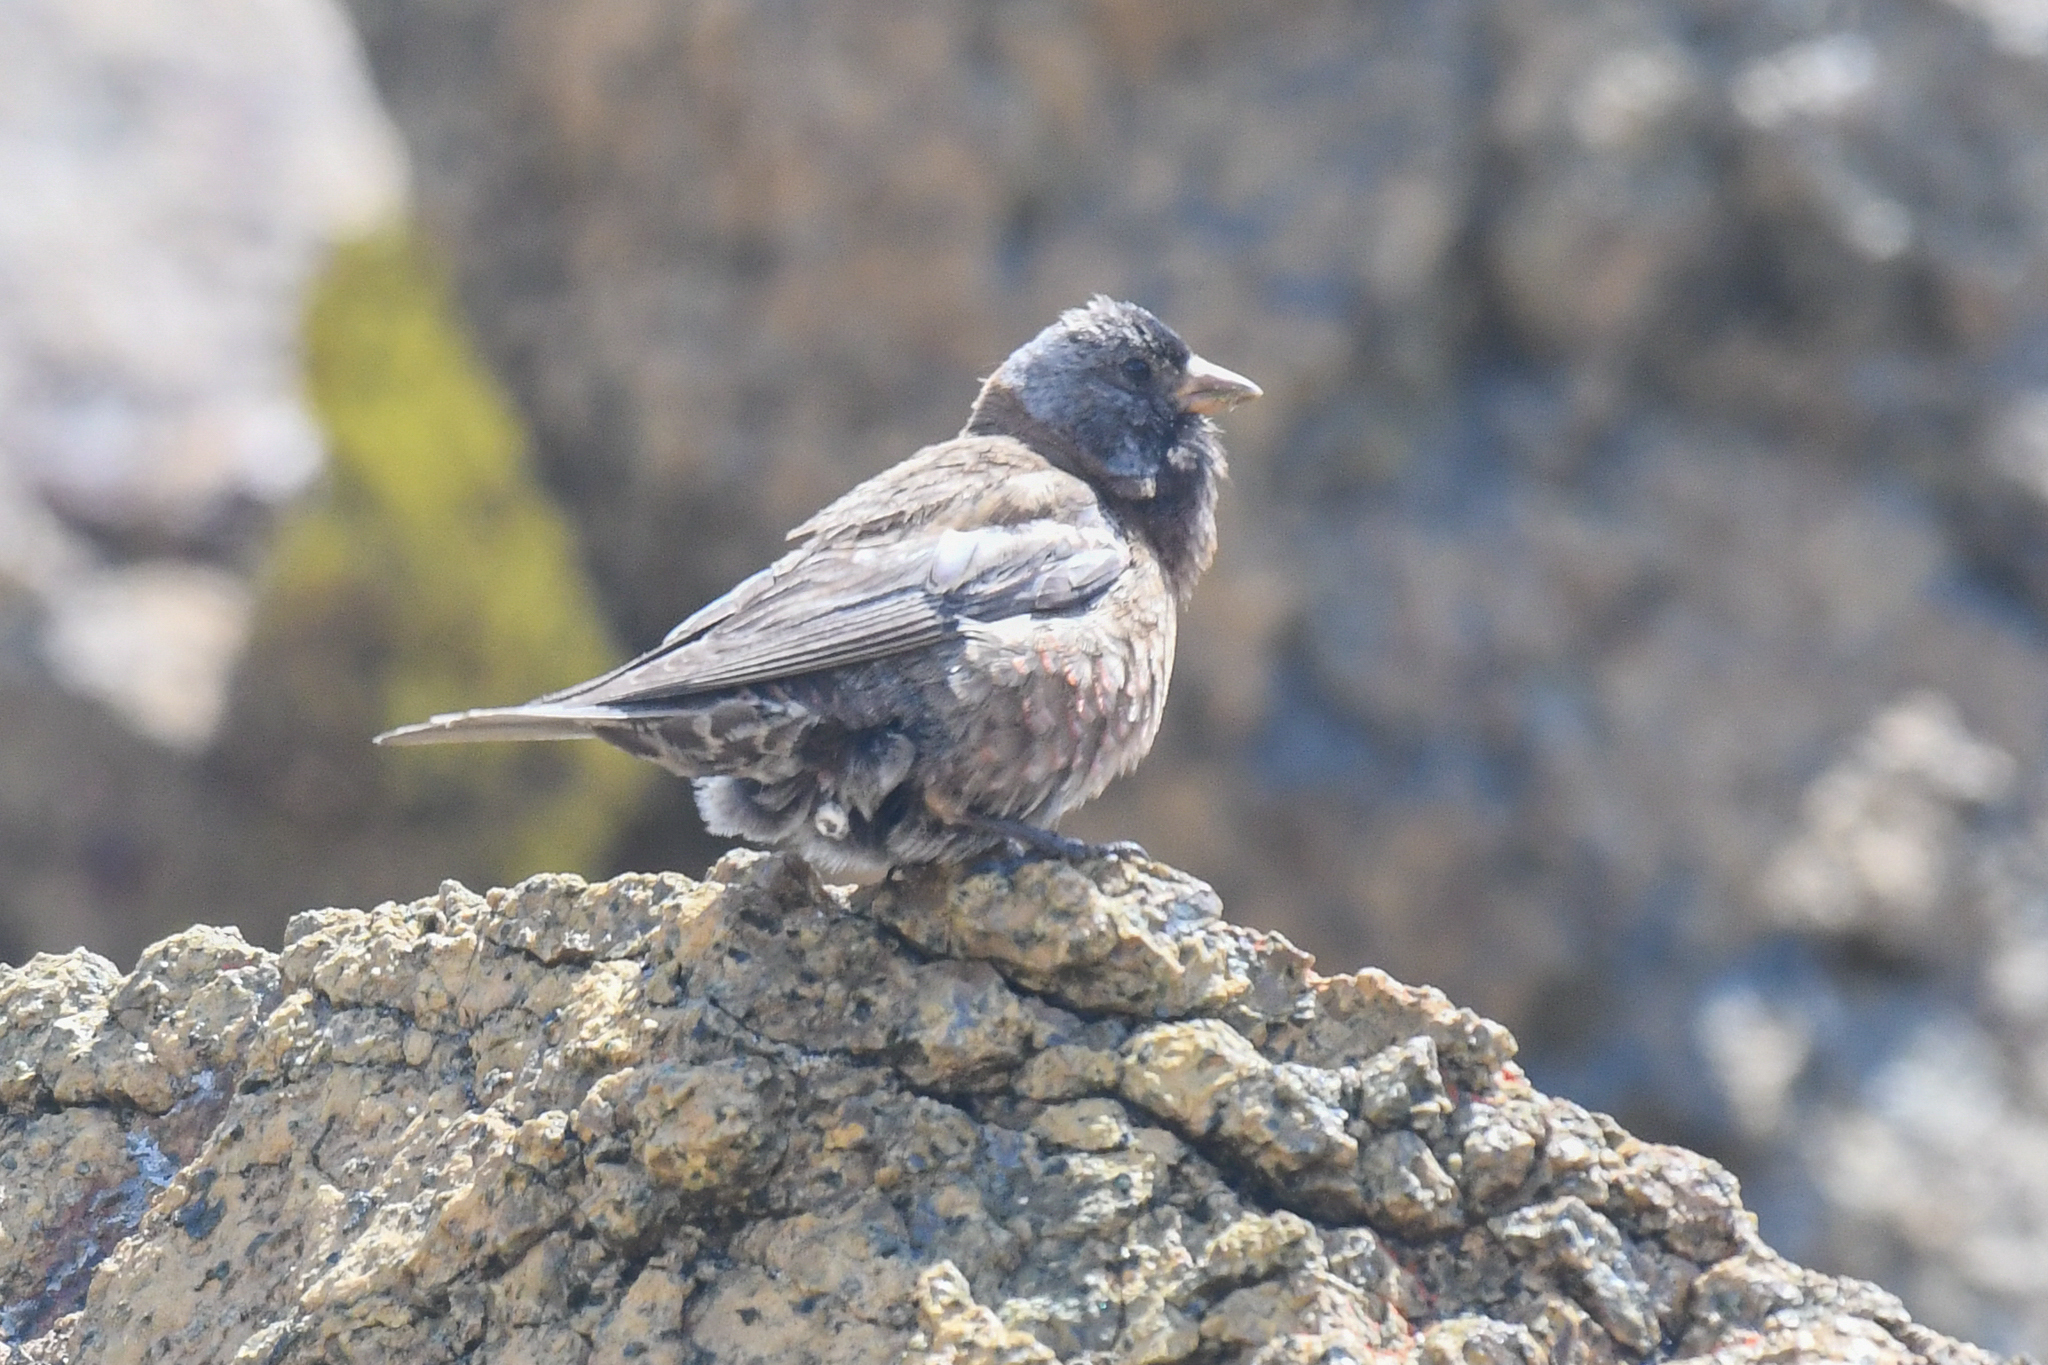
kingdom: Animalia
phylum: Chordata
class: Aves
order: Passeriformes
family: Fringillidae
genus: Leucosticte
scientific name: Leucosticte tephrocotis
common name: Gray-crowned rosy-finch
